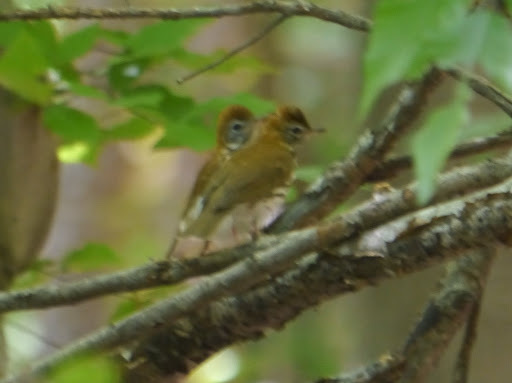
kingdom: Animalia
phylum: Chordata
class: Aves
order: Passeriformes
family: Turdidae
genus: Hylocichla
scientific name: Hylocichla mustelina
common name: Wood thrush
